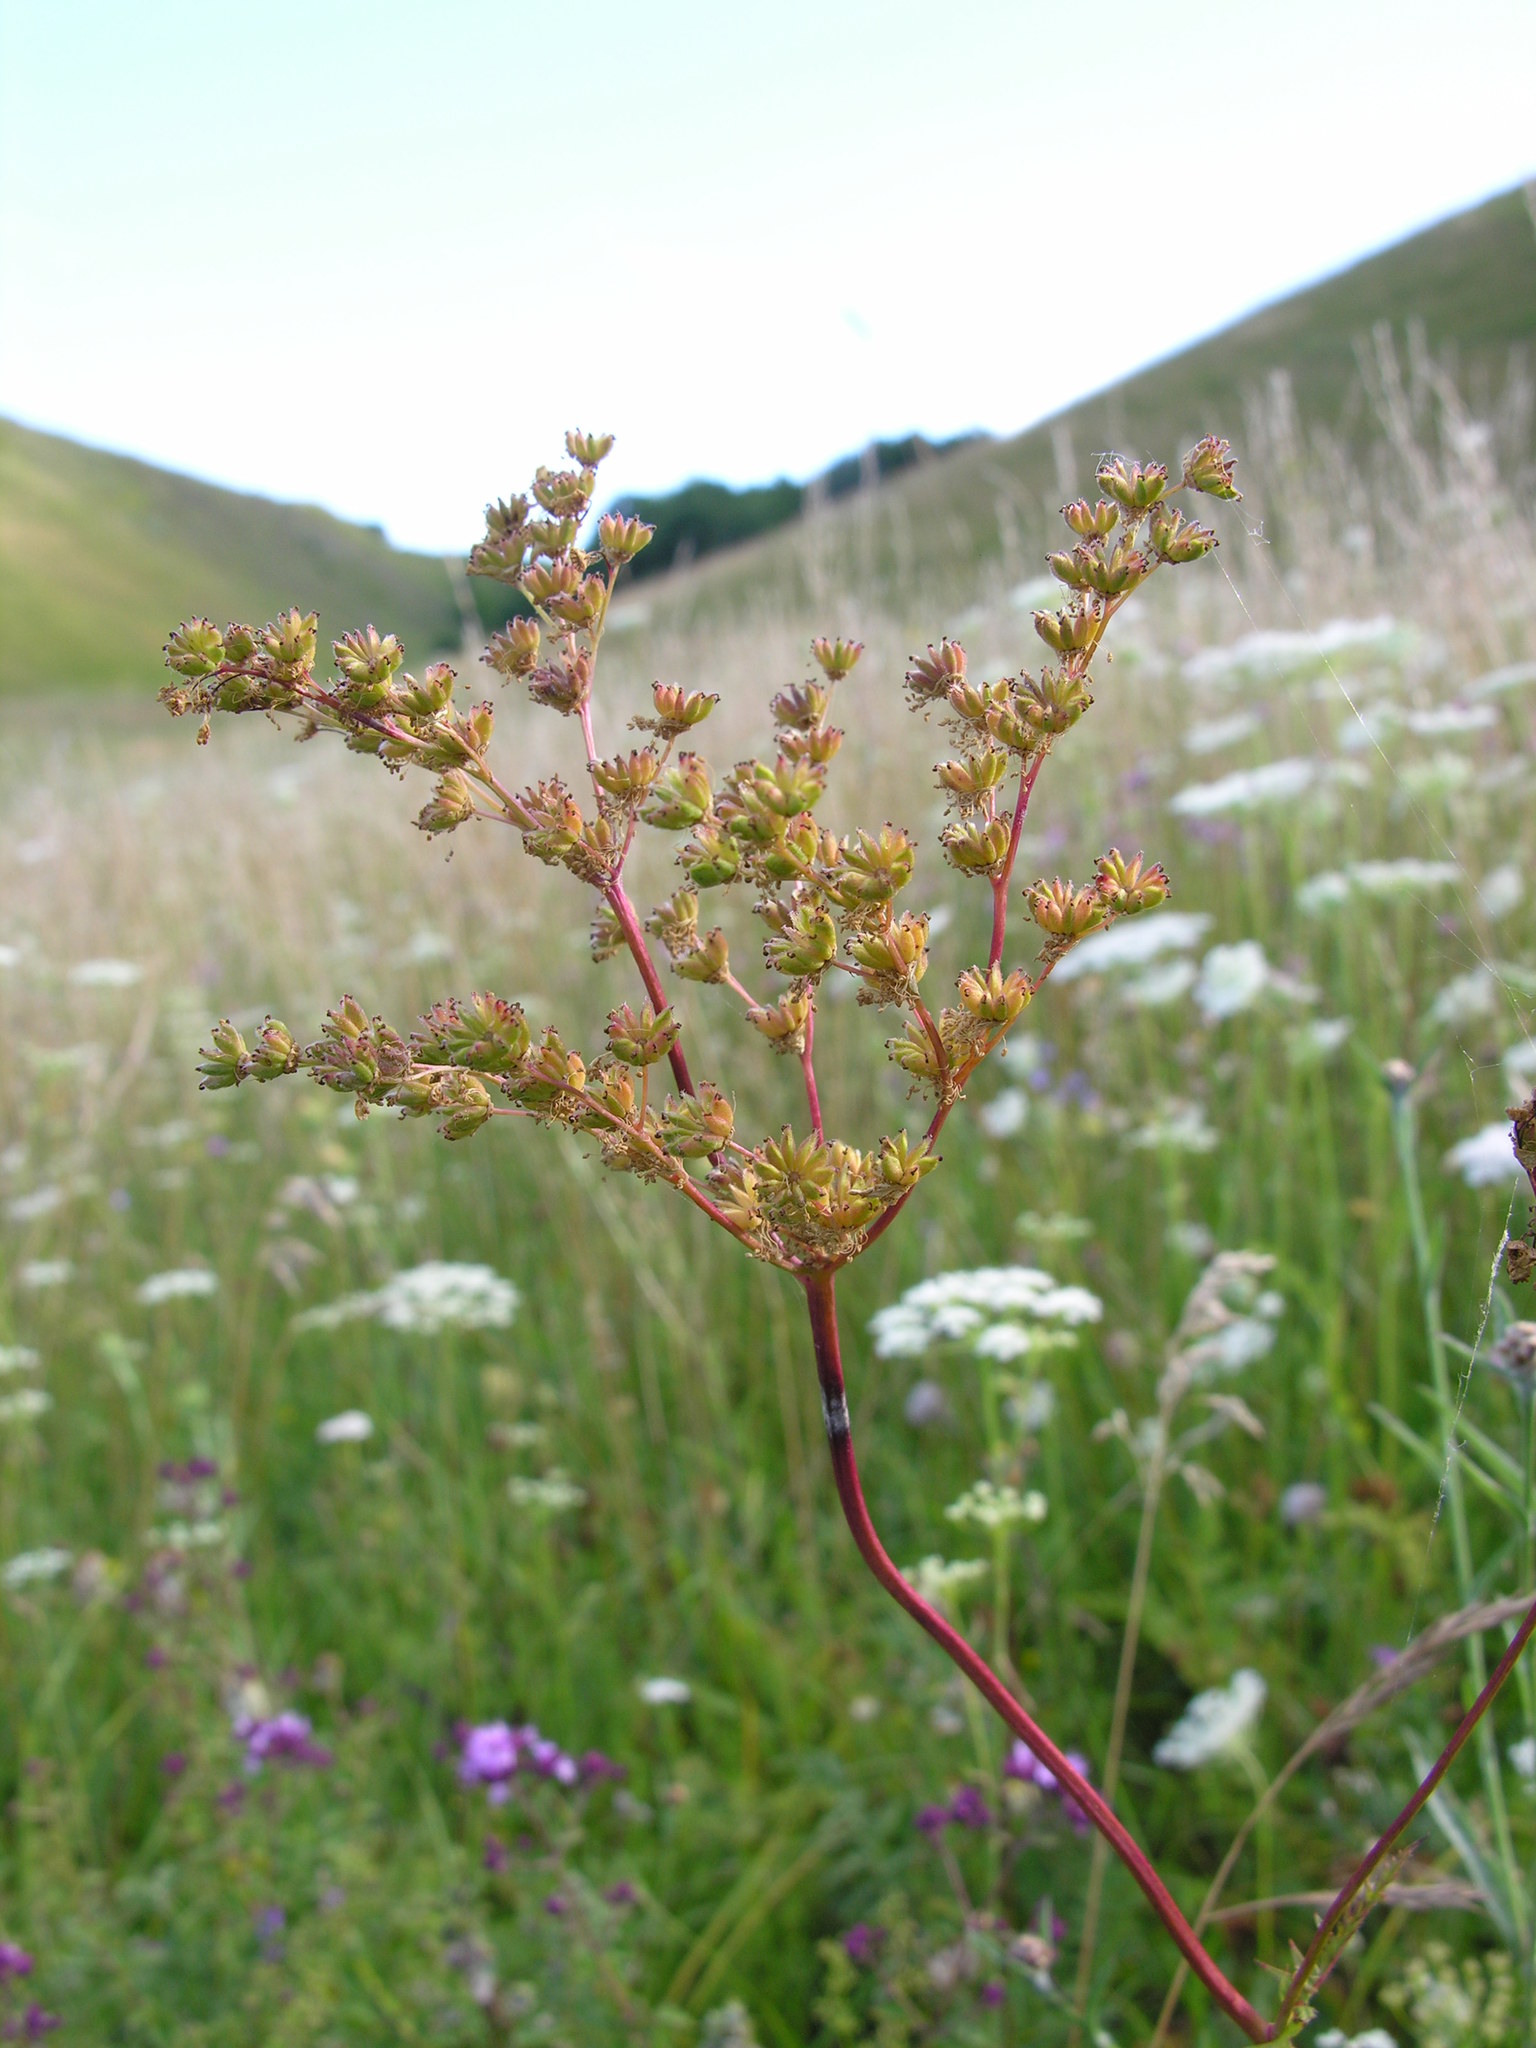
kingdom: Plantae
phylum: Tracheophyta
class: Magnoliopsida
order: Rosales
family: Rosaceae
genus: Filipendula
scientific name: Filipendula vulgaris
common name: Dropwort
